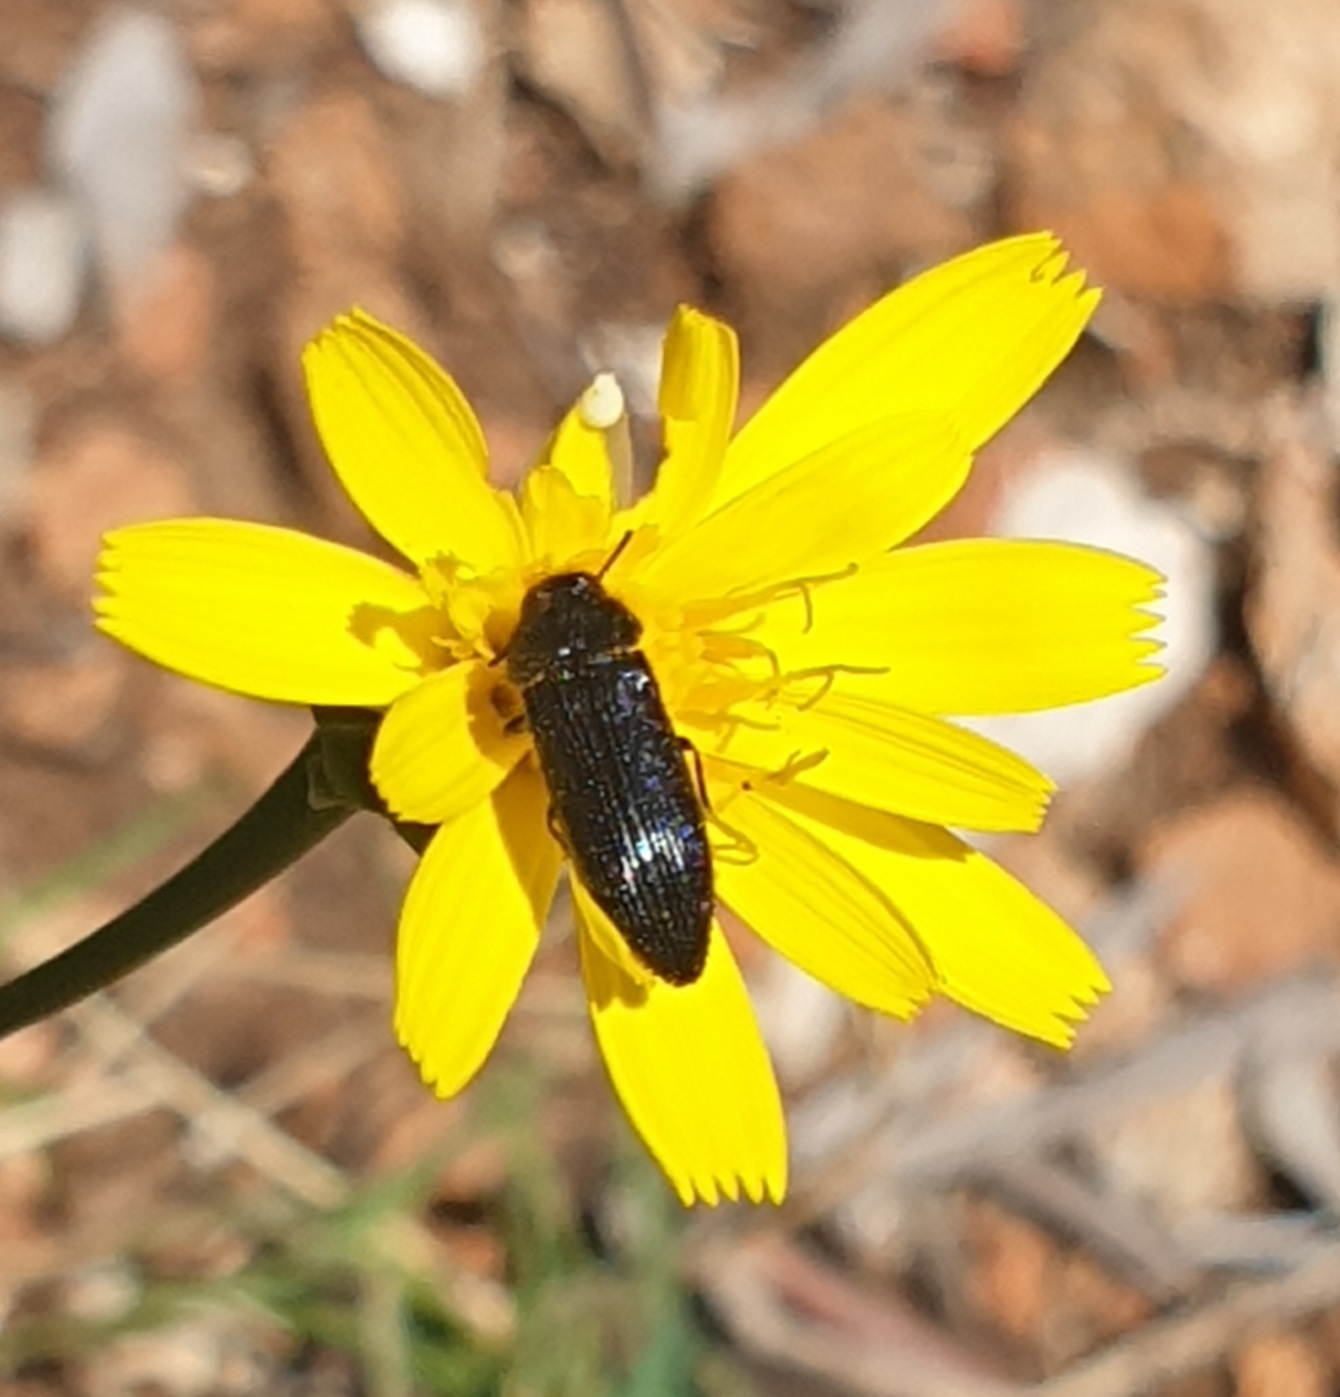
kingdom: Animalia
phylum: Arthropoda
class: Insecta
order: Coleoptera
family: Buprestidae
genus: Acmaeodera
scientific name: Acmaeodera quadrifasciata
